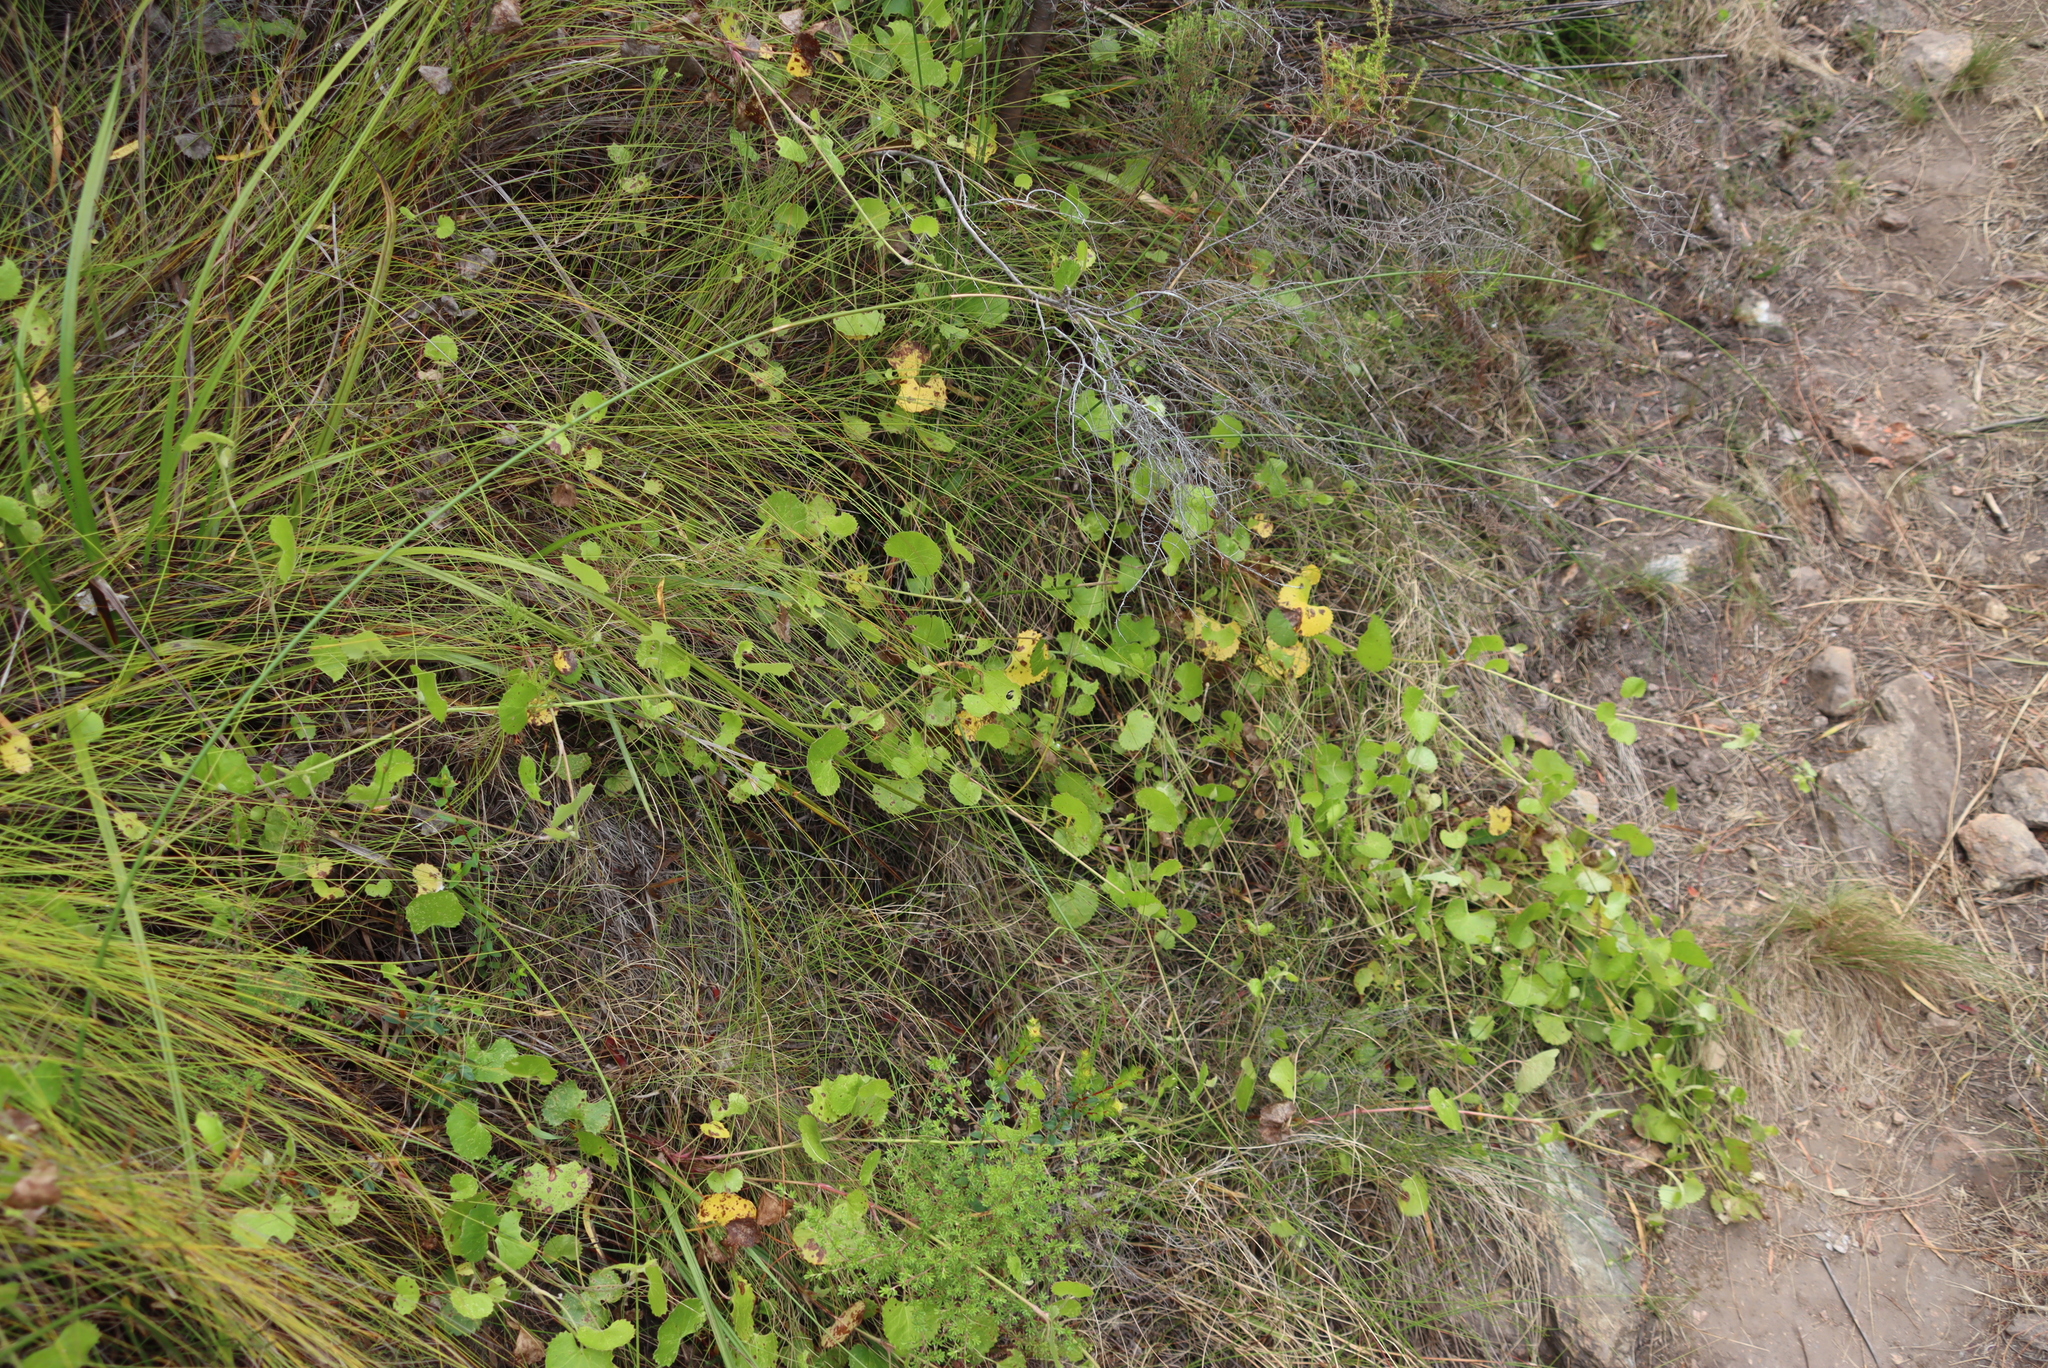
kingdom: Plantae
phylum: Tracheophyta
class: Magnoliopsida
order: Apiales
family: Apiaceae
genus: Centella
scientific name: Centella eriantha
